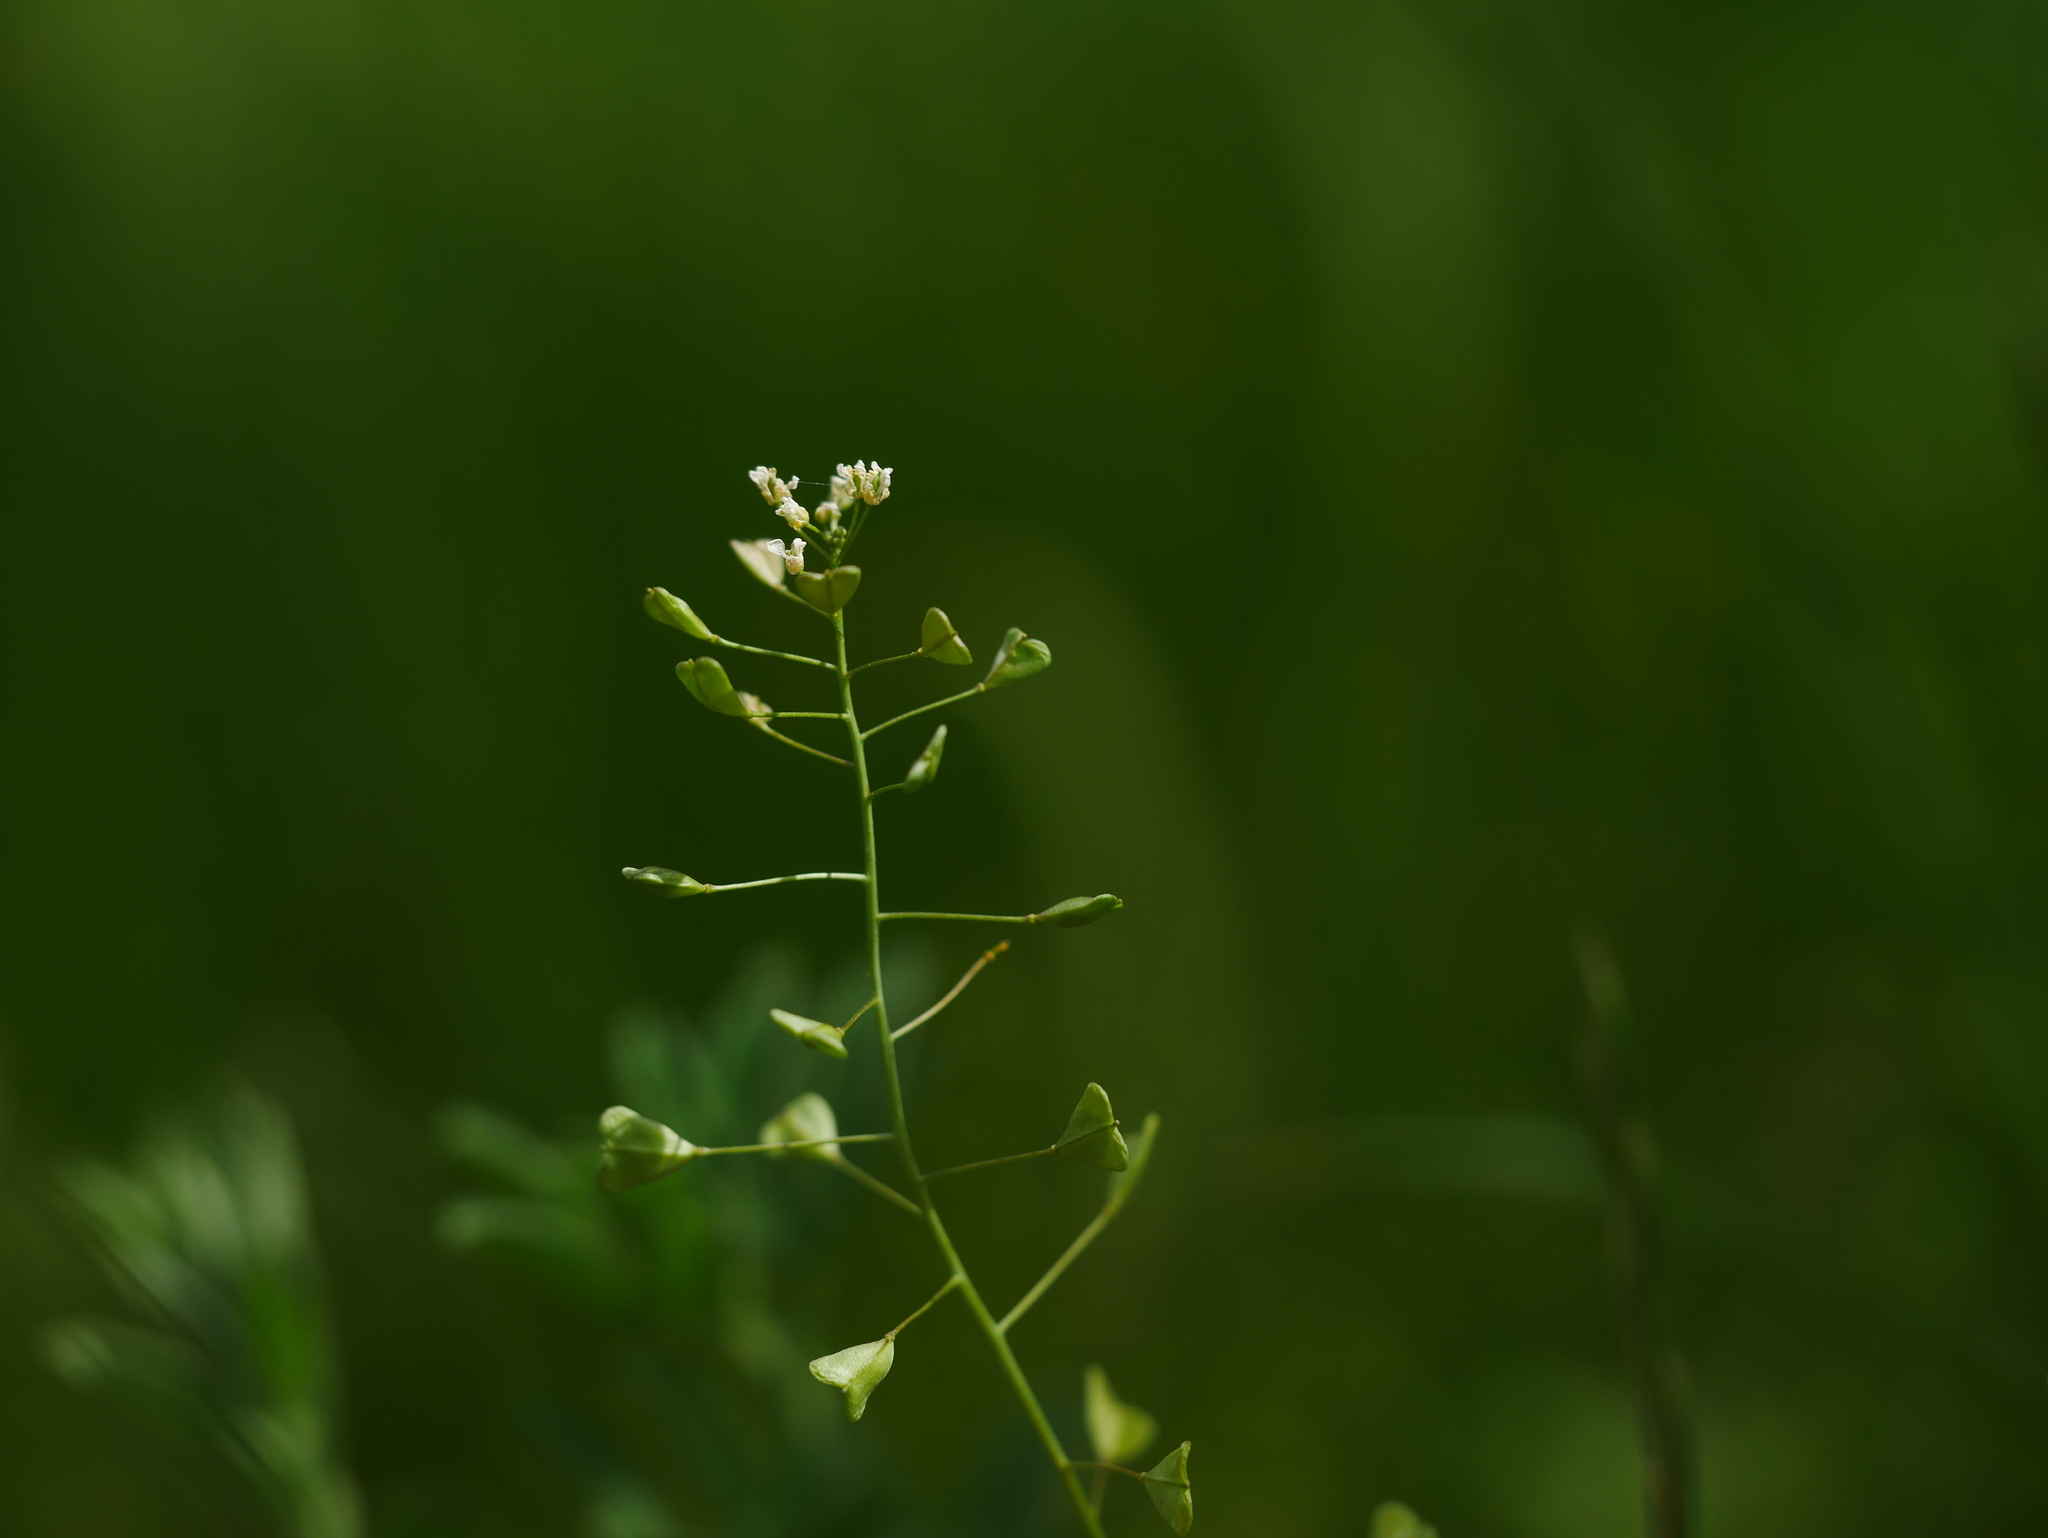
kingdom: Plantae
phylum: Tracheophyta
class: Magnoliopsida
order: Brassicales
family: Brassicaceae
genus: Capsella
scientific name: Capsella bursa-pastoris
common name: Shepherd's purse
